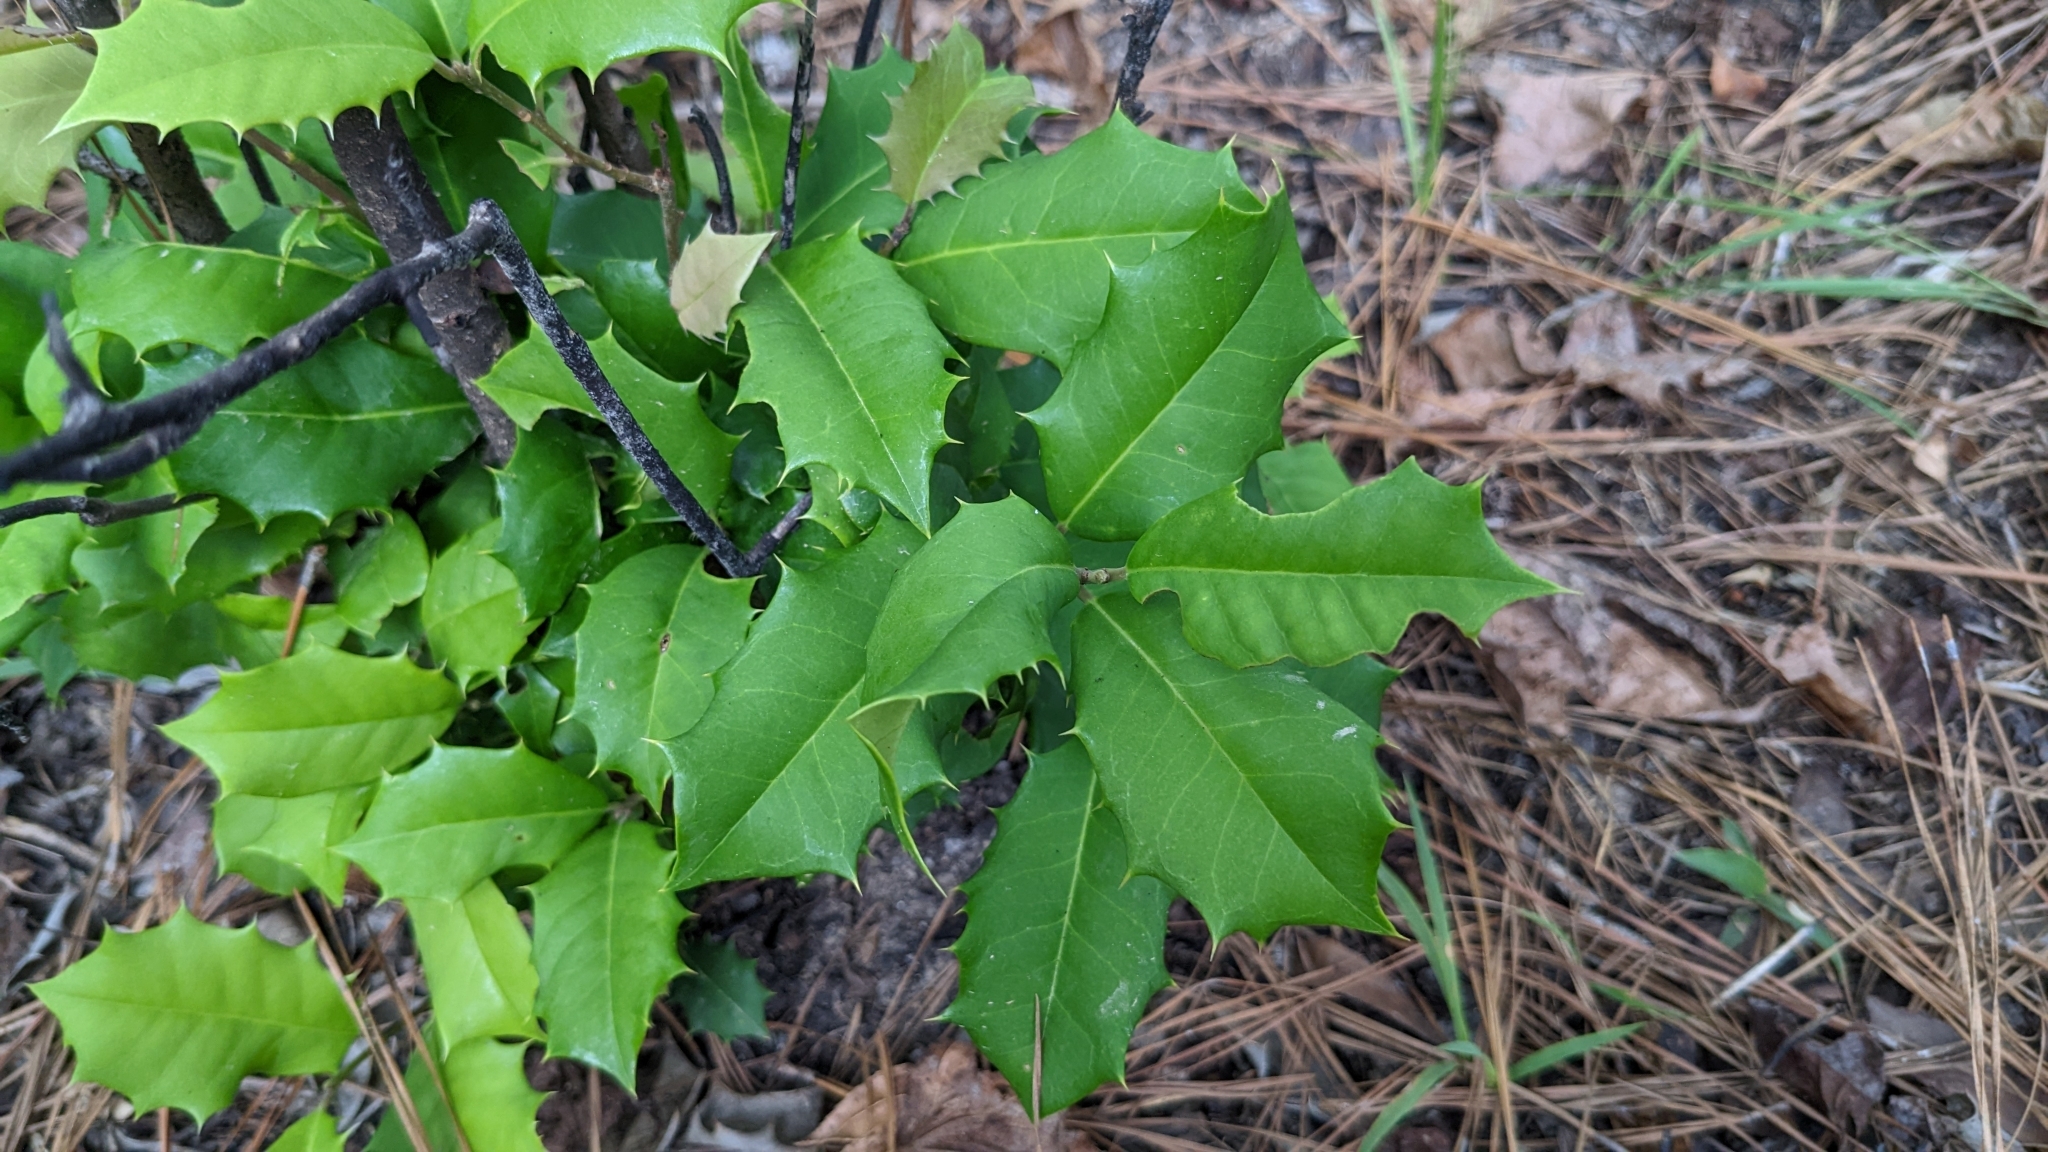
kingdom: Plantae
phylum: Tracheophyta
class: Magnoliopsida
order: Aquifoliales
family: Aquifoliaceae
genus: Ilex
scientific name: Ilex opaca
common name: American holly
